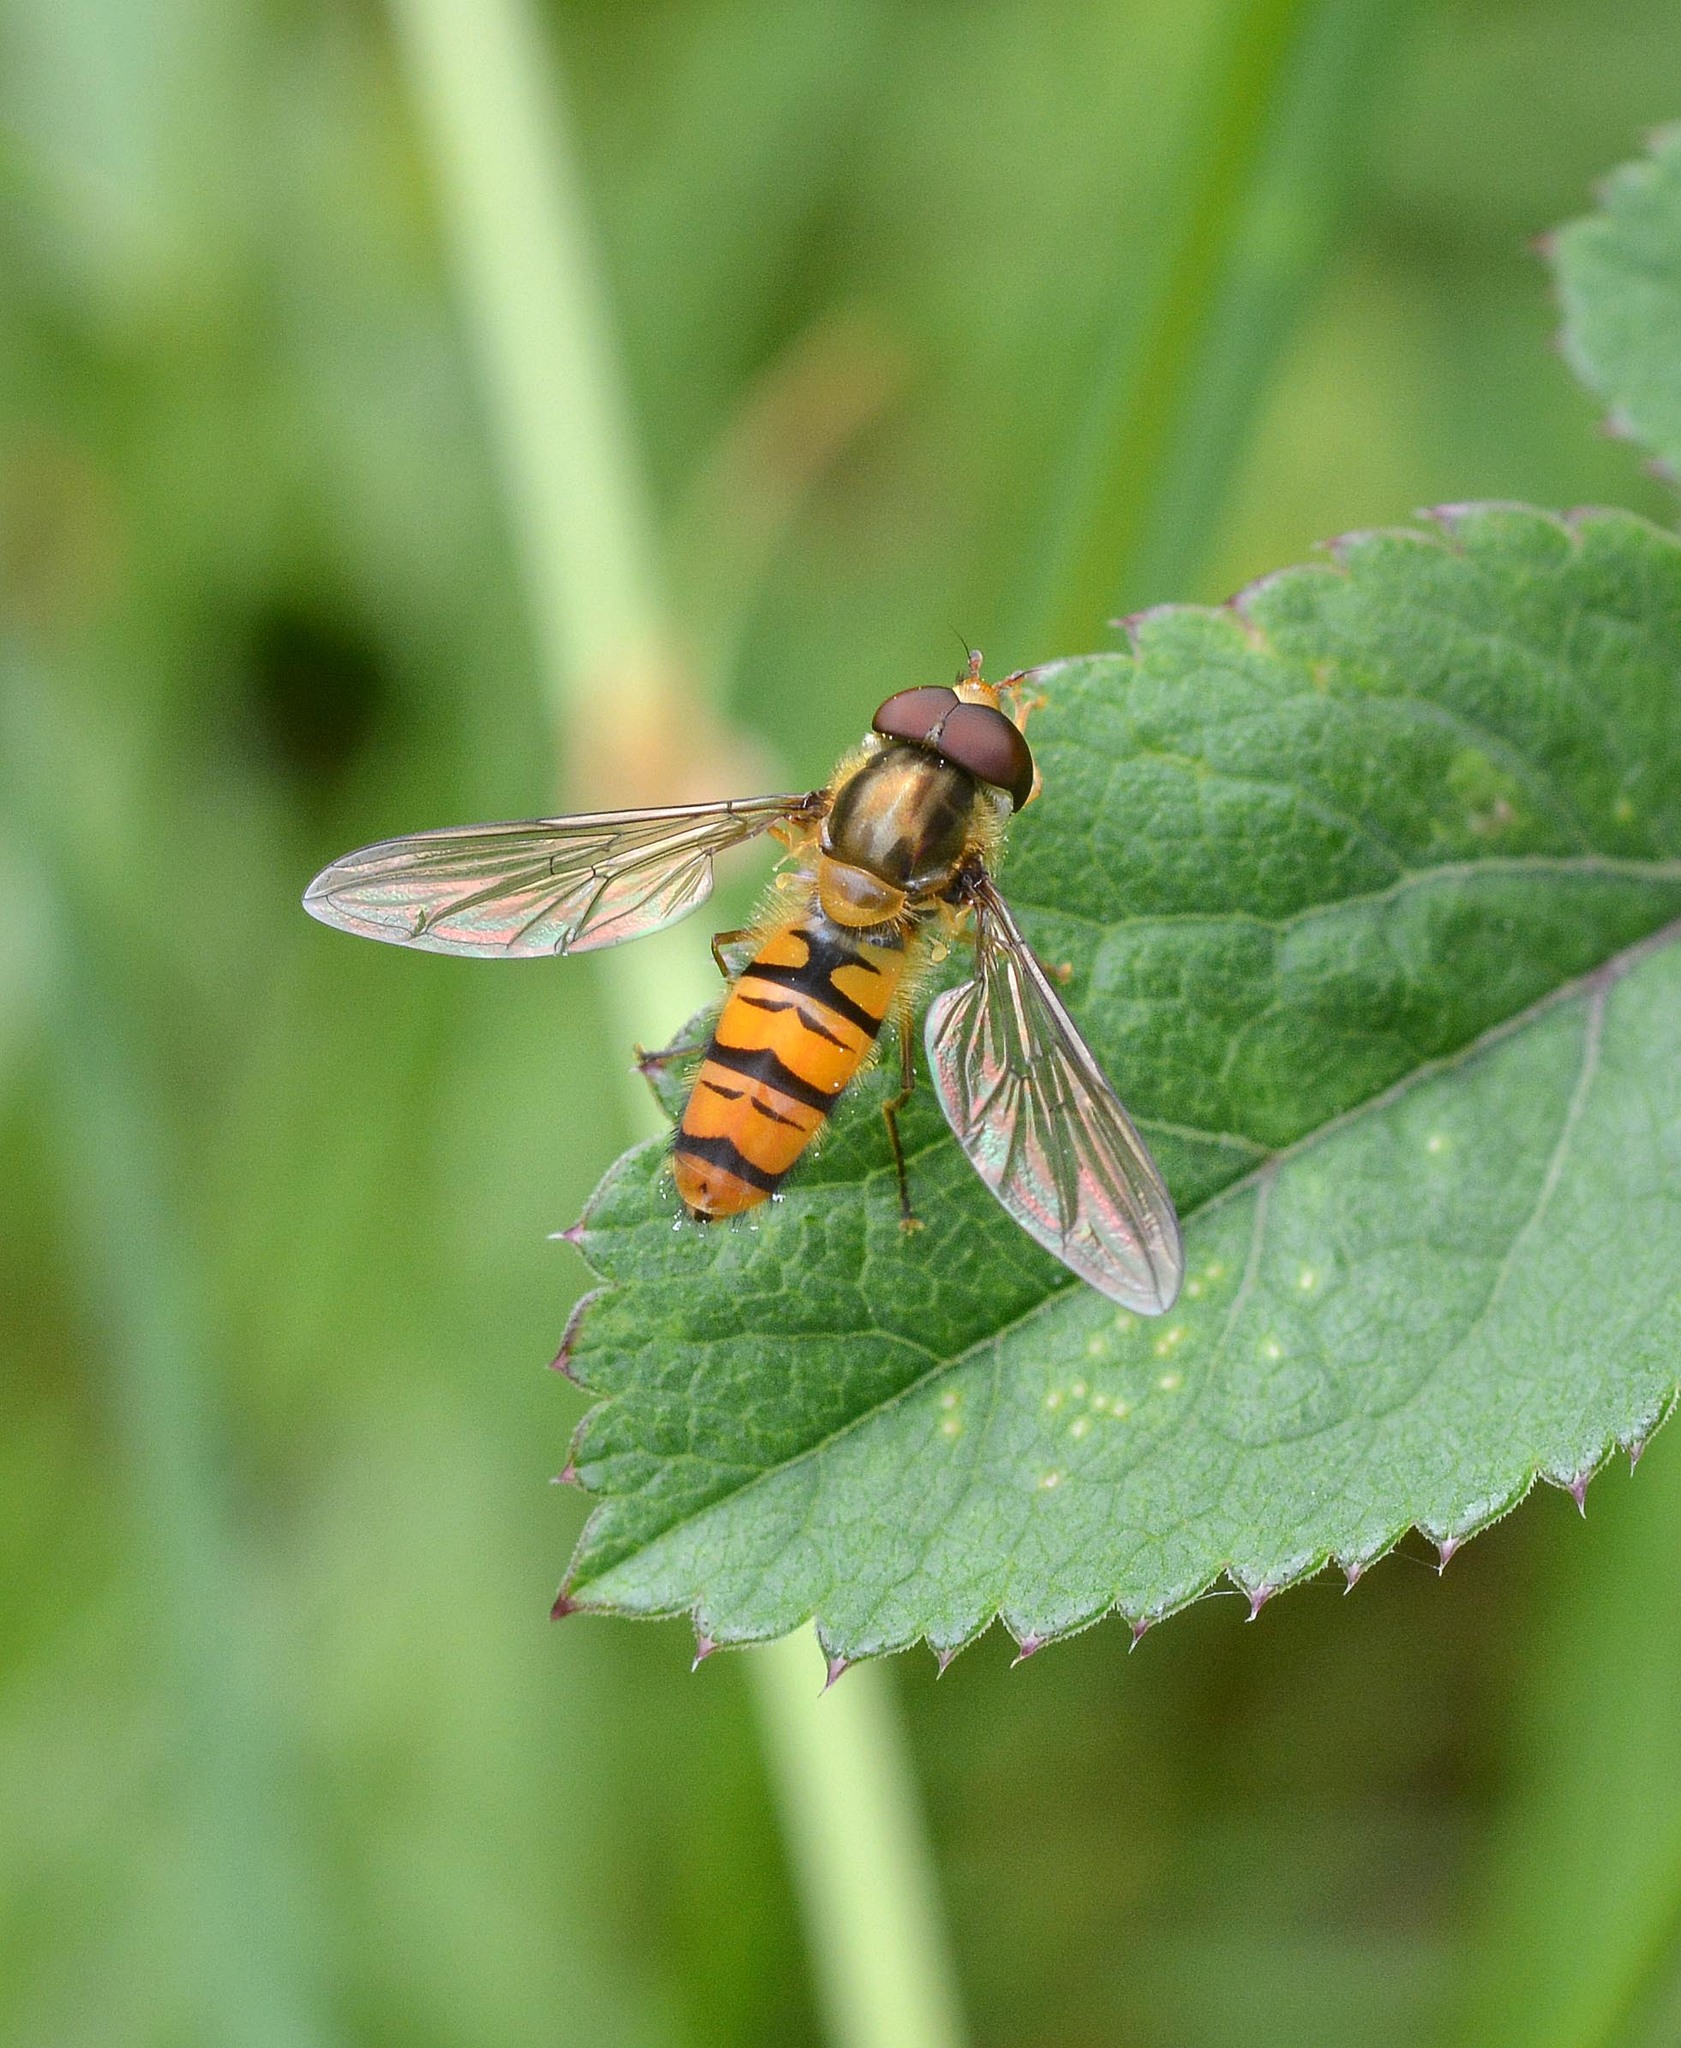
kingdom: Animalia
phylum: Arthropoda
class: Insecta
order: Diptera
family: Syrphidae
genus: Episyrphus
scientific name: Episyrphus balteatus
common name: Marmalade hoverfly
